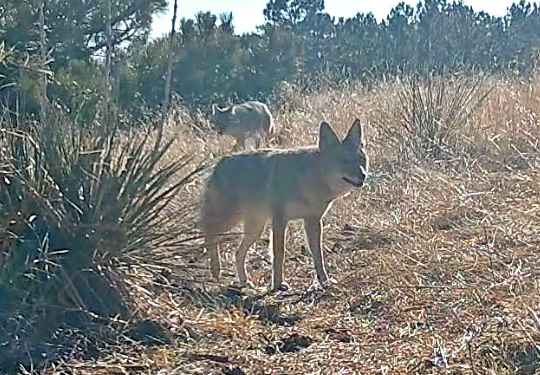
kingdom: Animalia
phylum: Chordata
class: Mammalia
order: Carnivora
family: Canidae
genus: Canis
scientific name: Canis latrans
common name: Coyote
